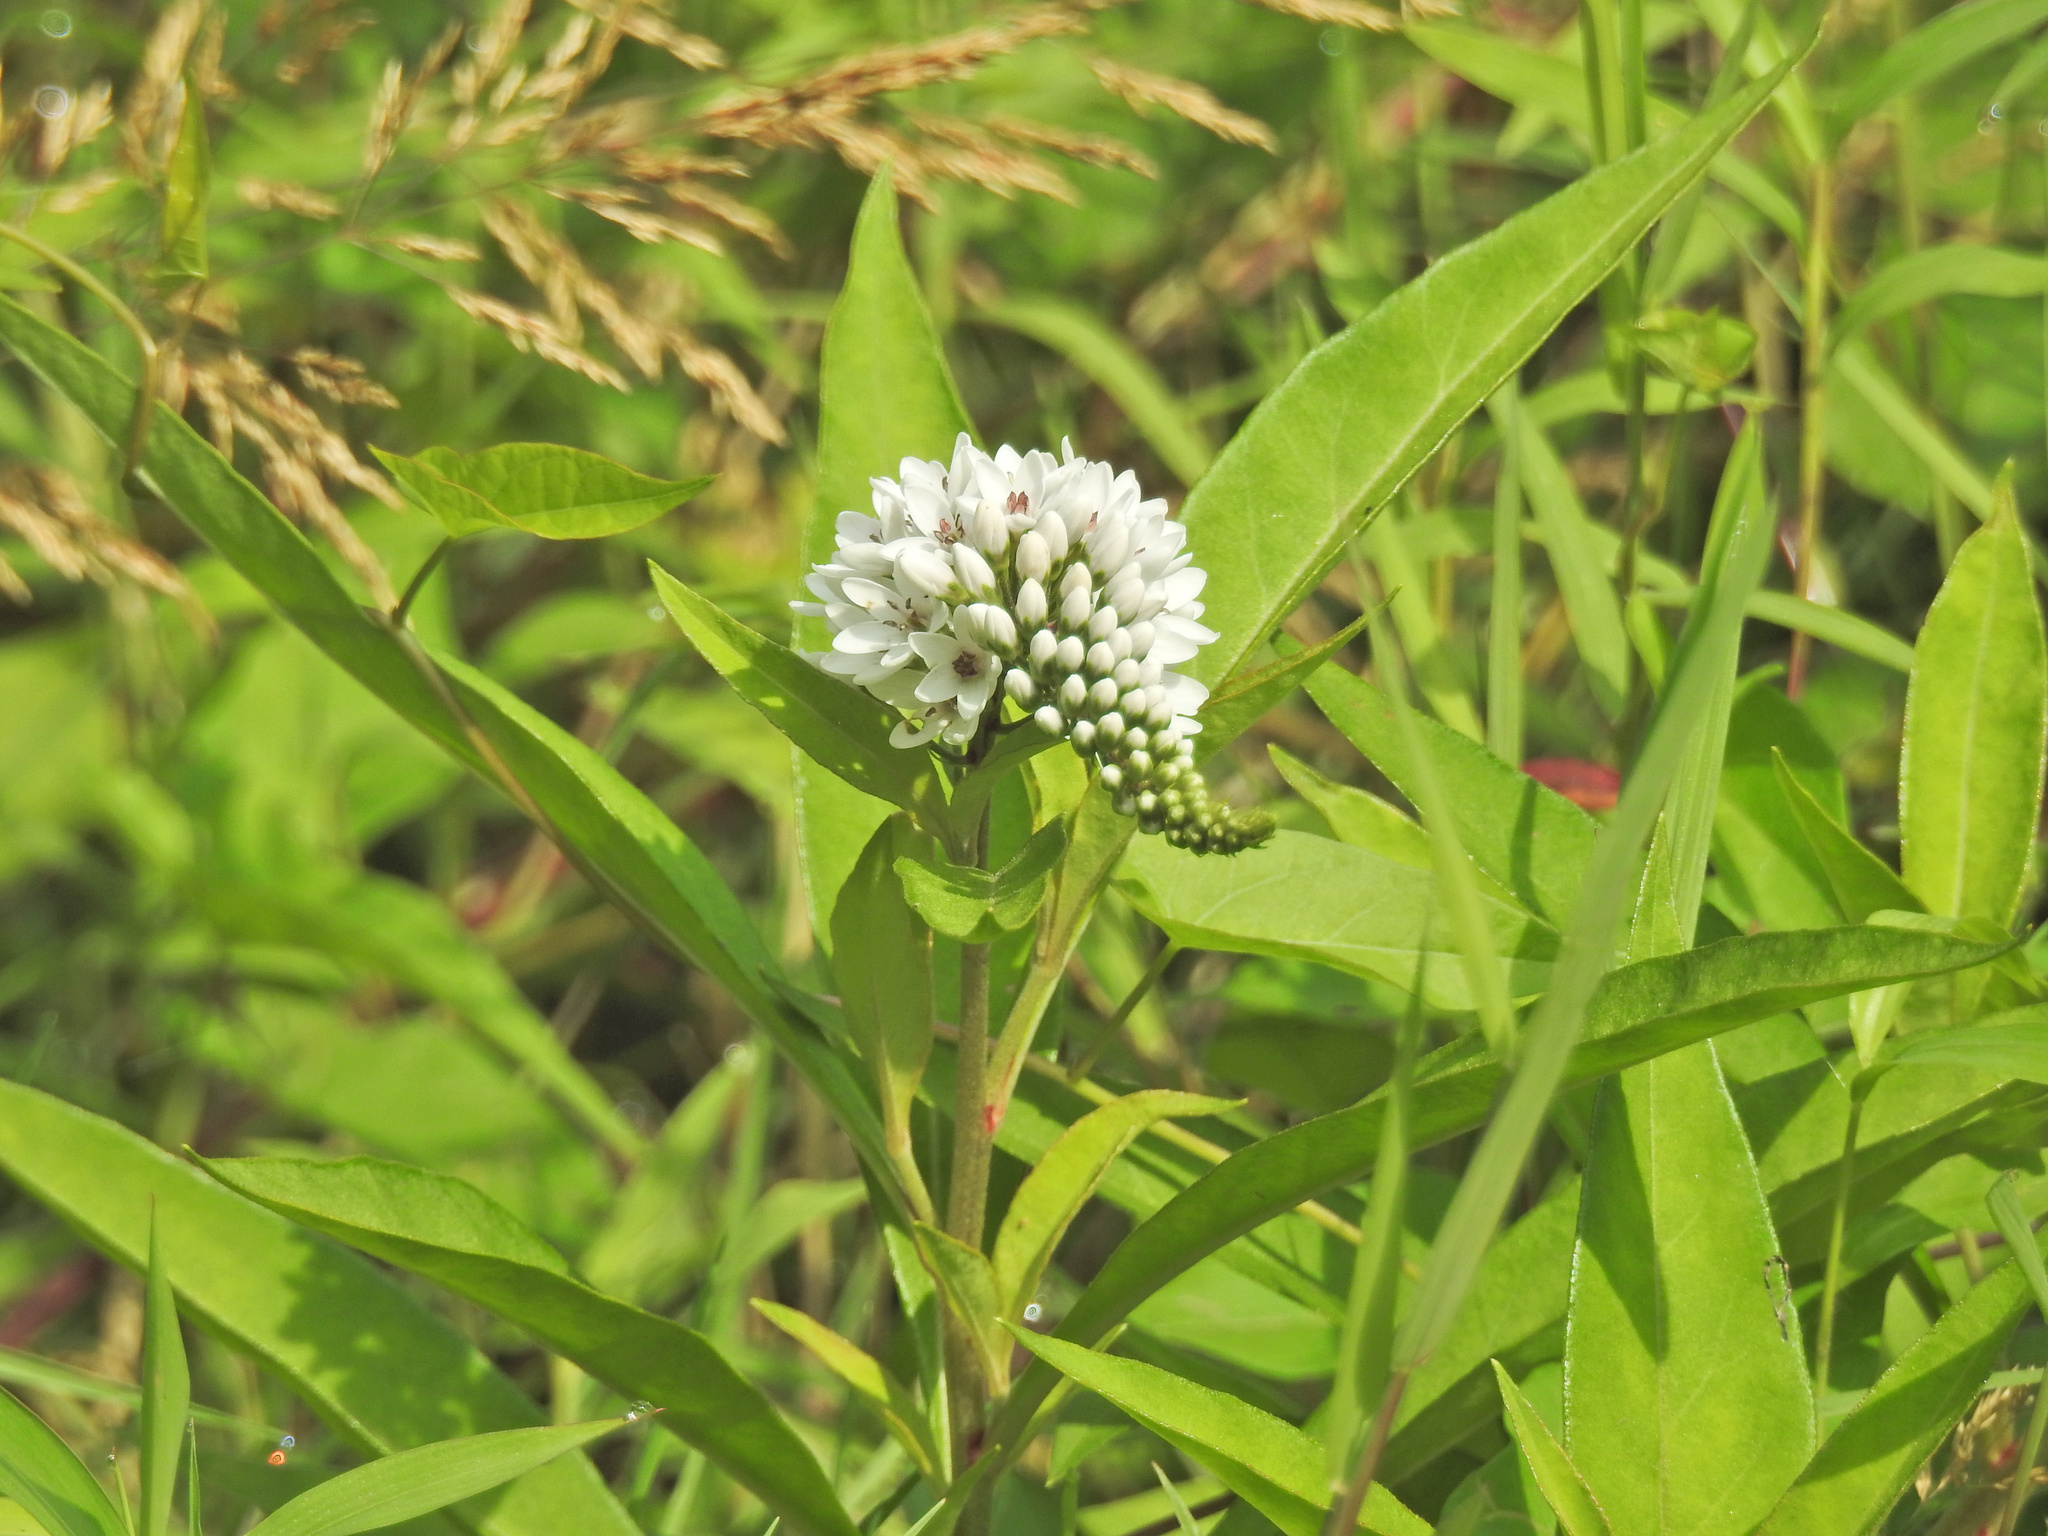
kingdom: Plantae
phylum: Tracheophyta
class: Magnoliopsida
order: Ericales
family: Primulaceae
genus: Lysimachia
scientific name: Lysimachia clethroides
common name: Gooseneck loosestrife
